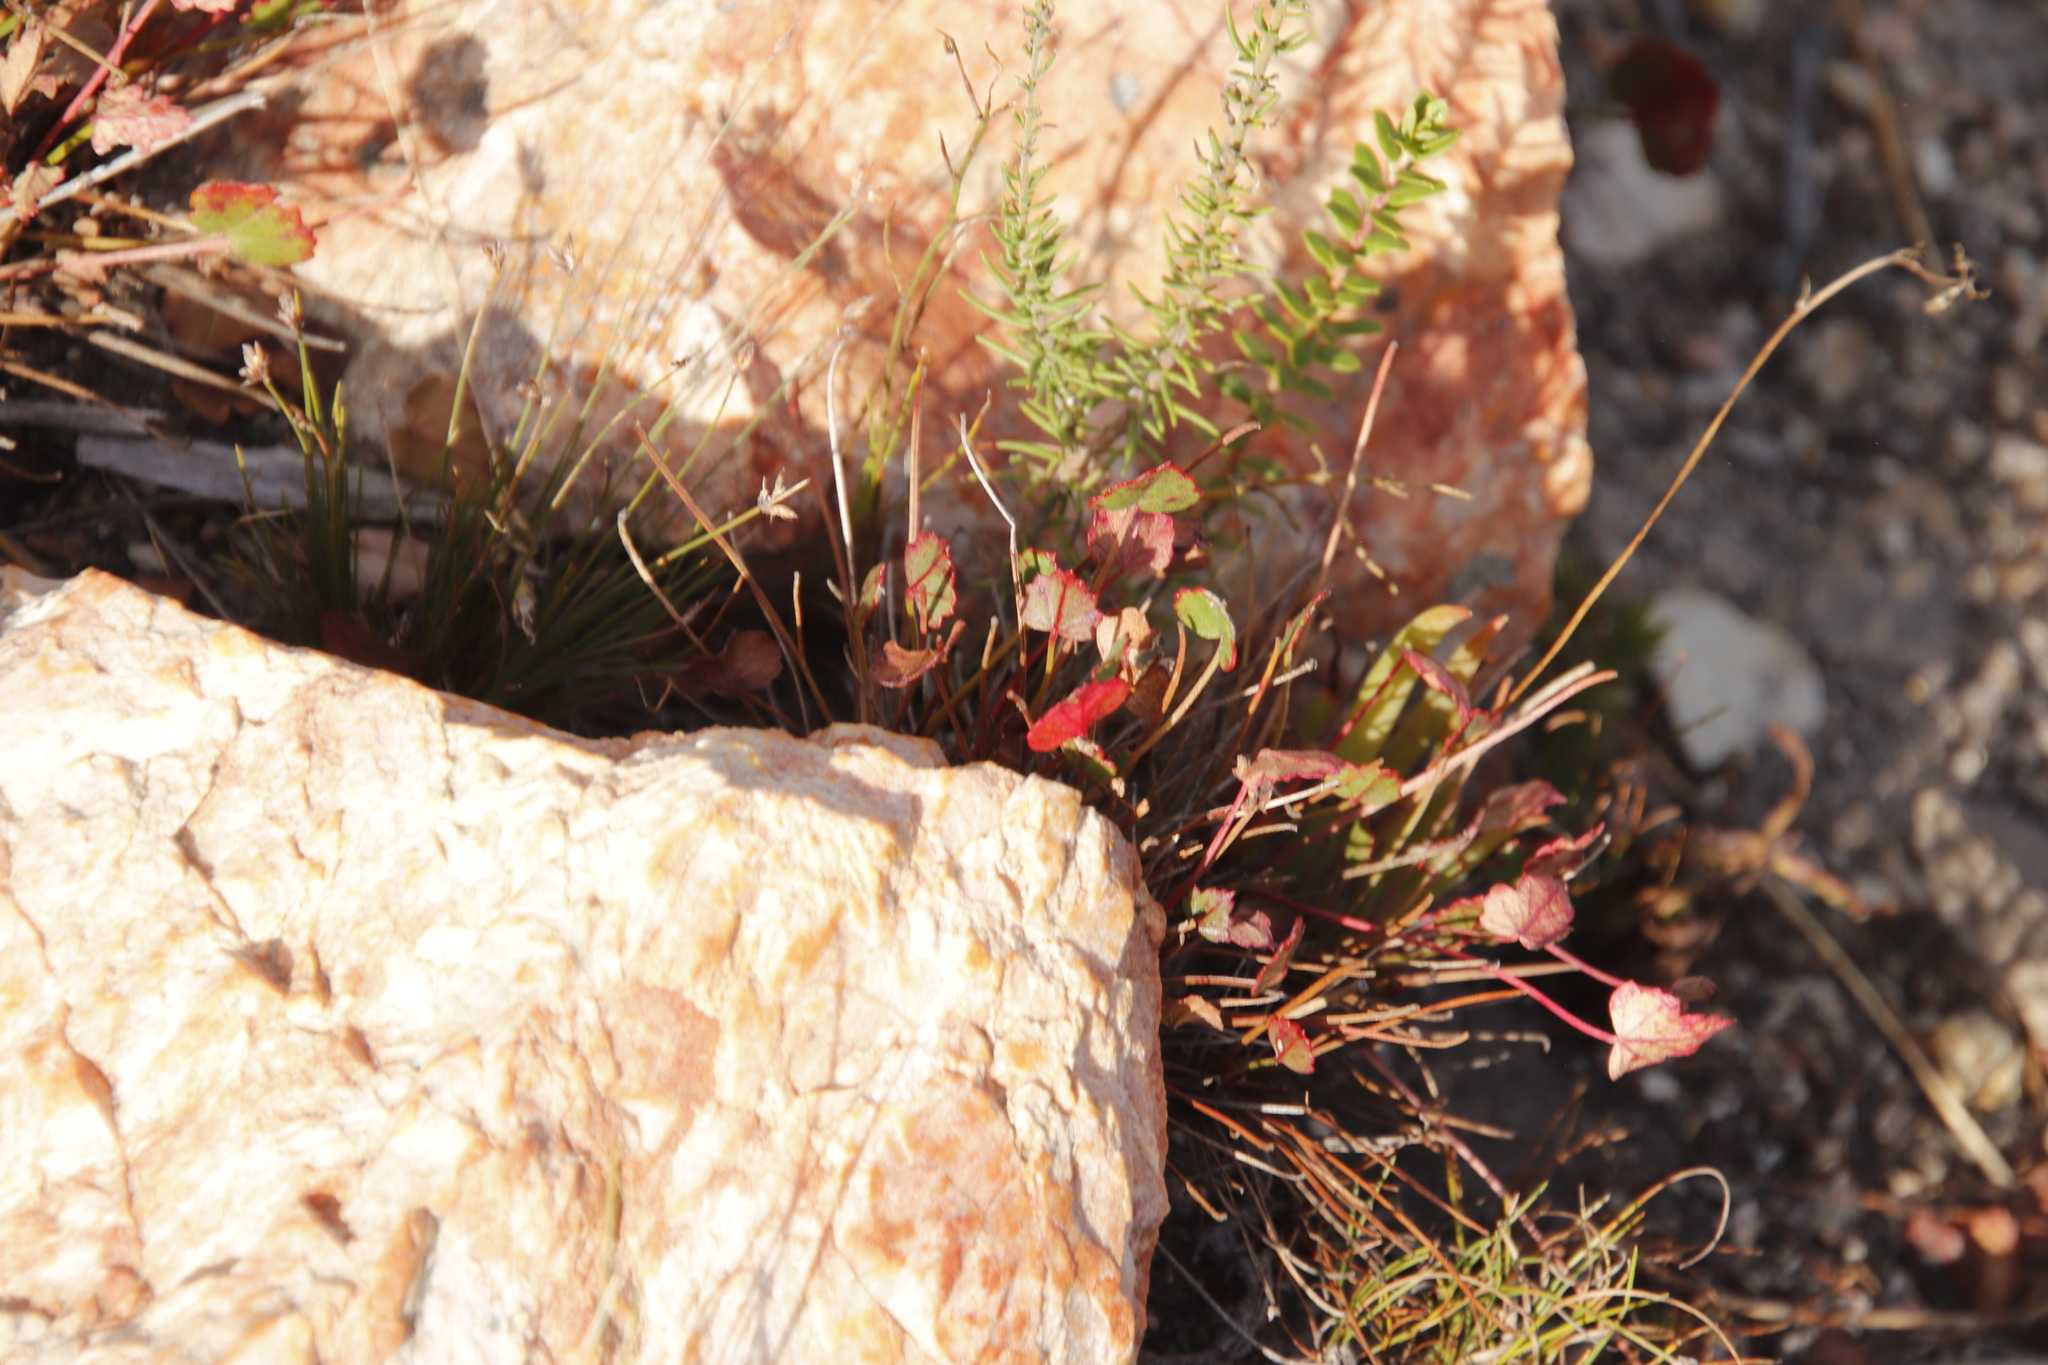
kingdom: Plantae
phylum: Tracheophyta
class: Magnoliopsida
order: Apiales
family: Apiaceae
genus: Centella
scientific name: Centella eriantha
